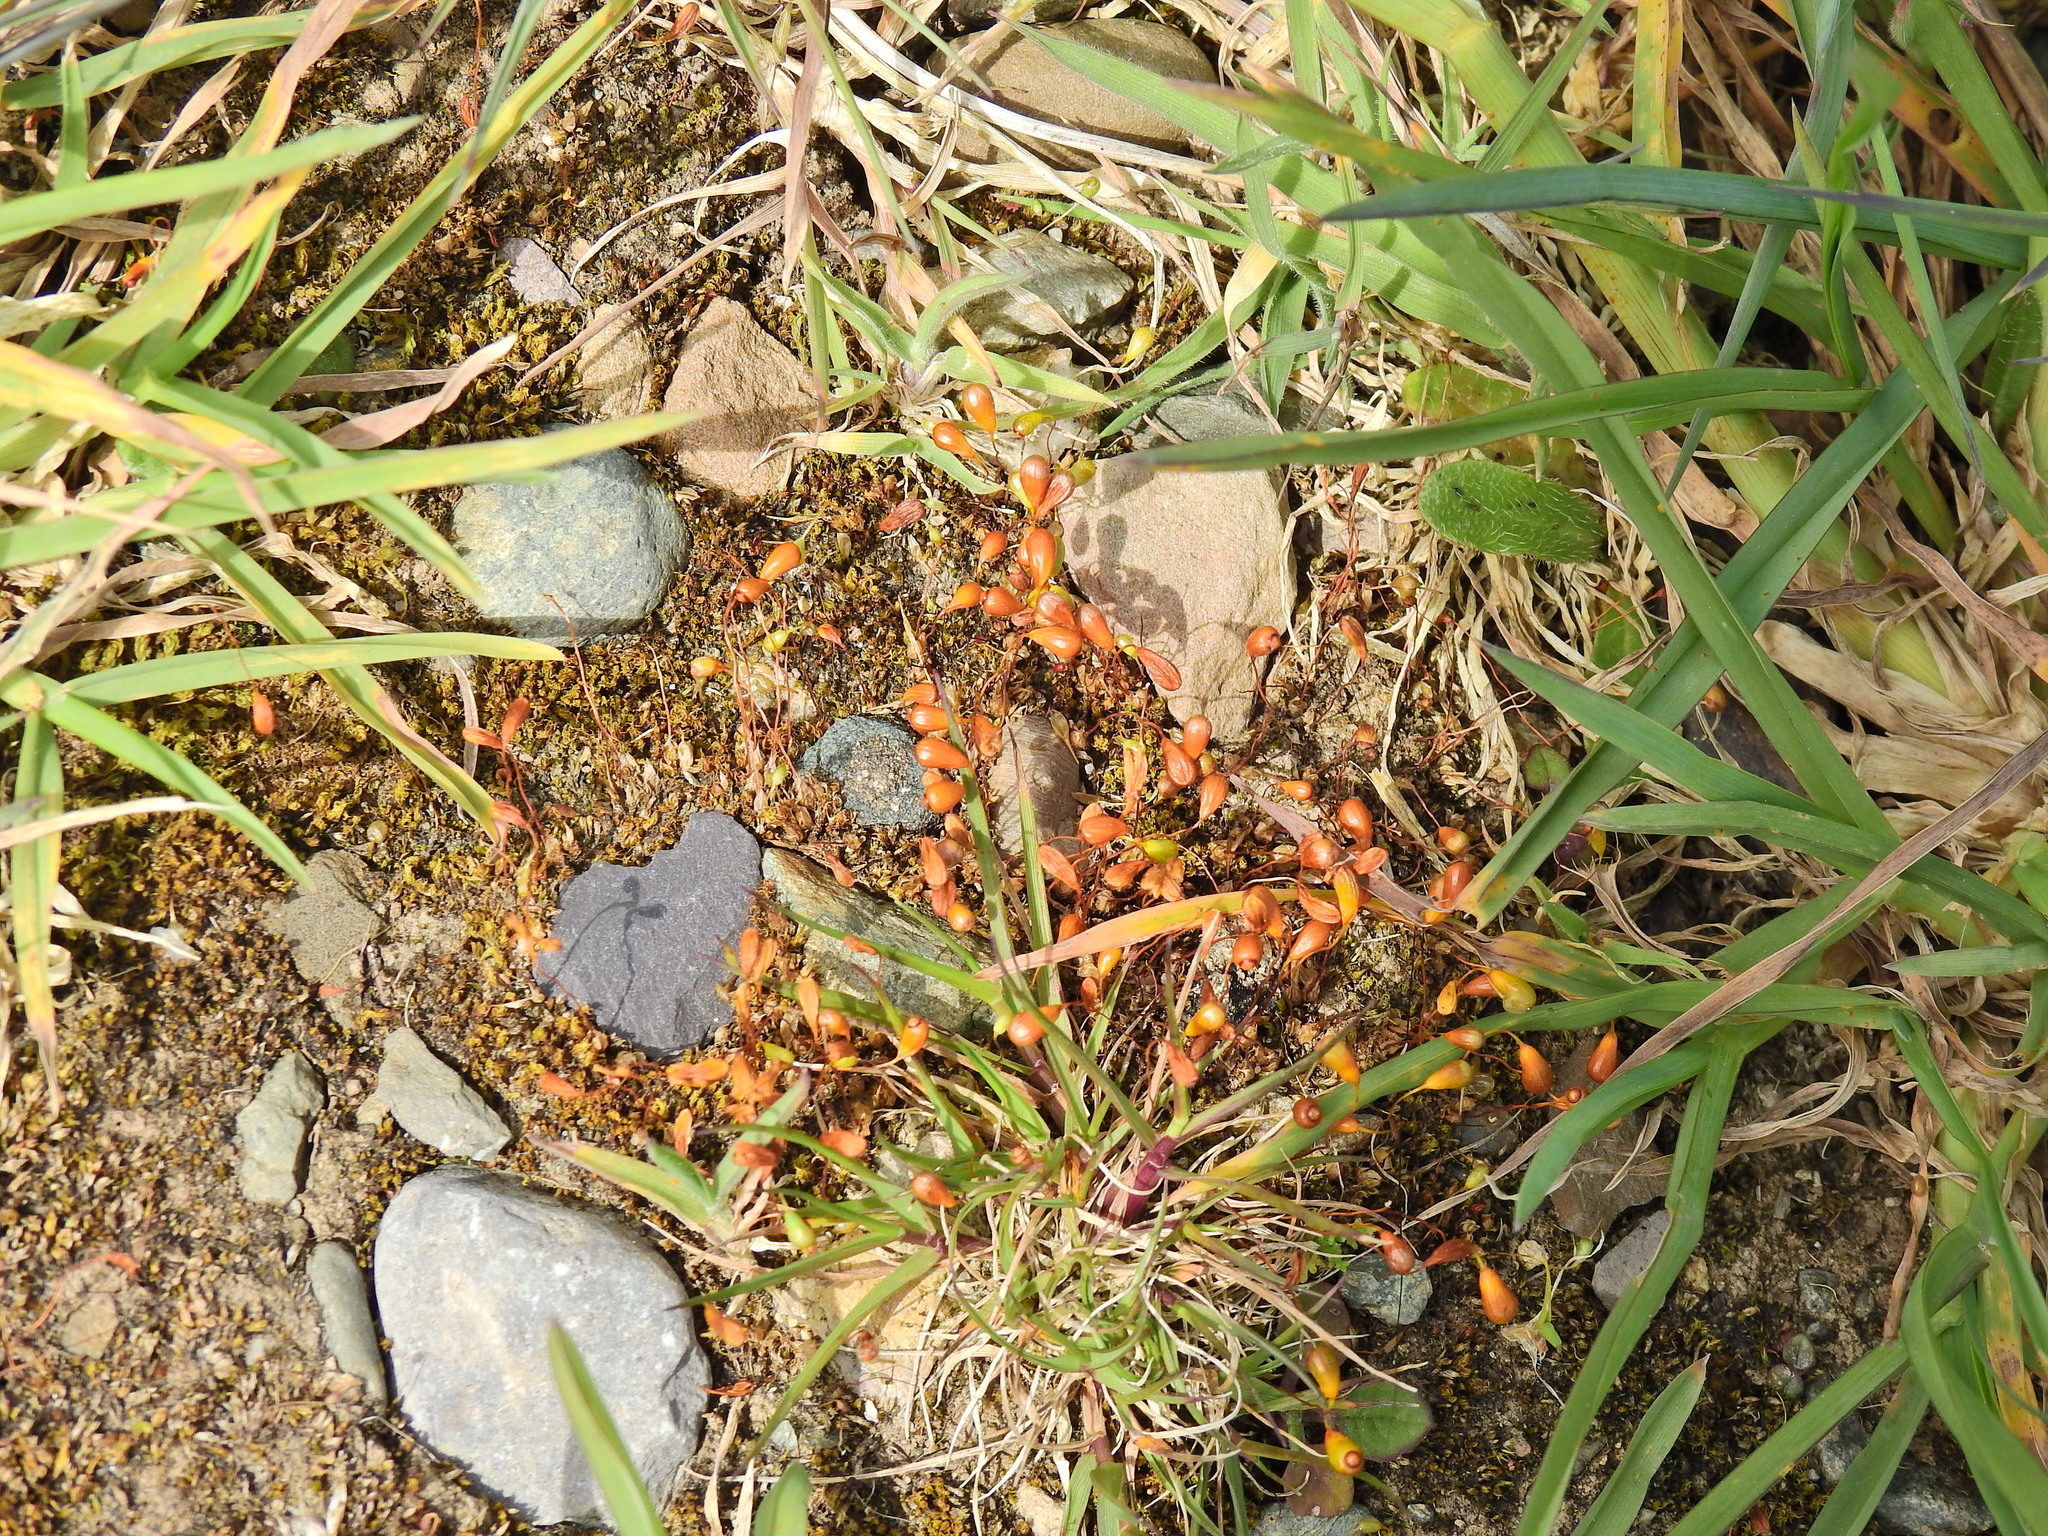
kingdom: Plantae
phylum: Bryophyta
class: Bryopsida
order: Funariales
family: Funariaceae
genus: Funaria
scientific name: Funaria hygrometrica
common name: Common cord moss
